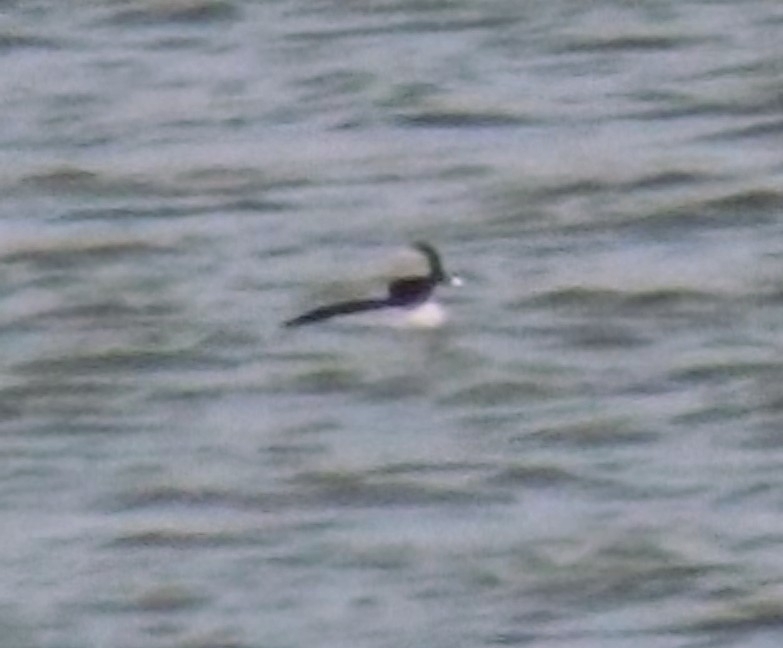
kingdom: Animalia
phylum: Chordata
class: Aves
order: Anseriformes
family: Anatidae
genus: Bucephala
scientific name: Bucephala albeola
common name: Bufflehead
